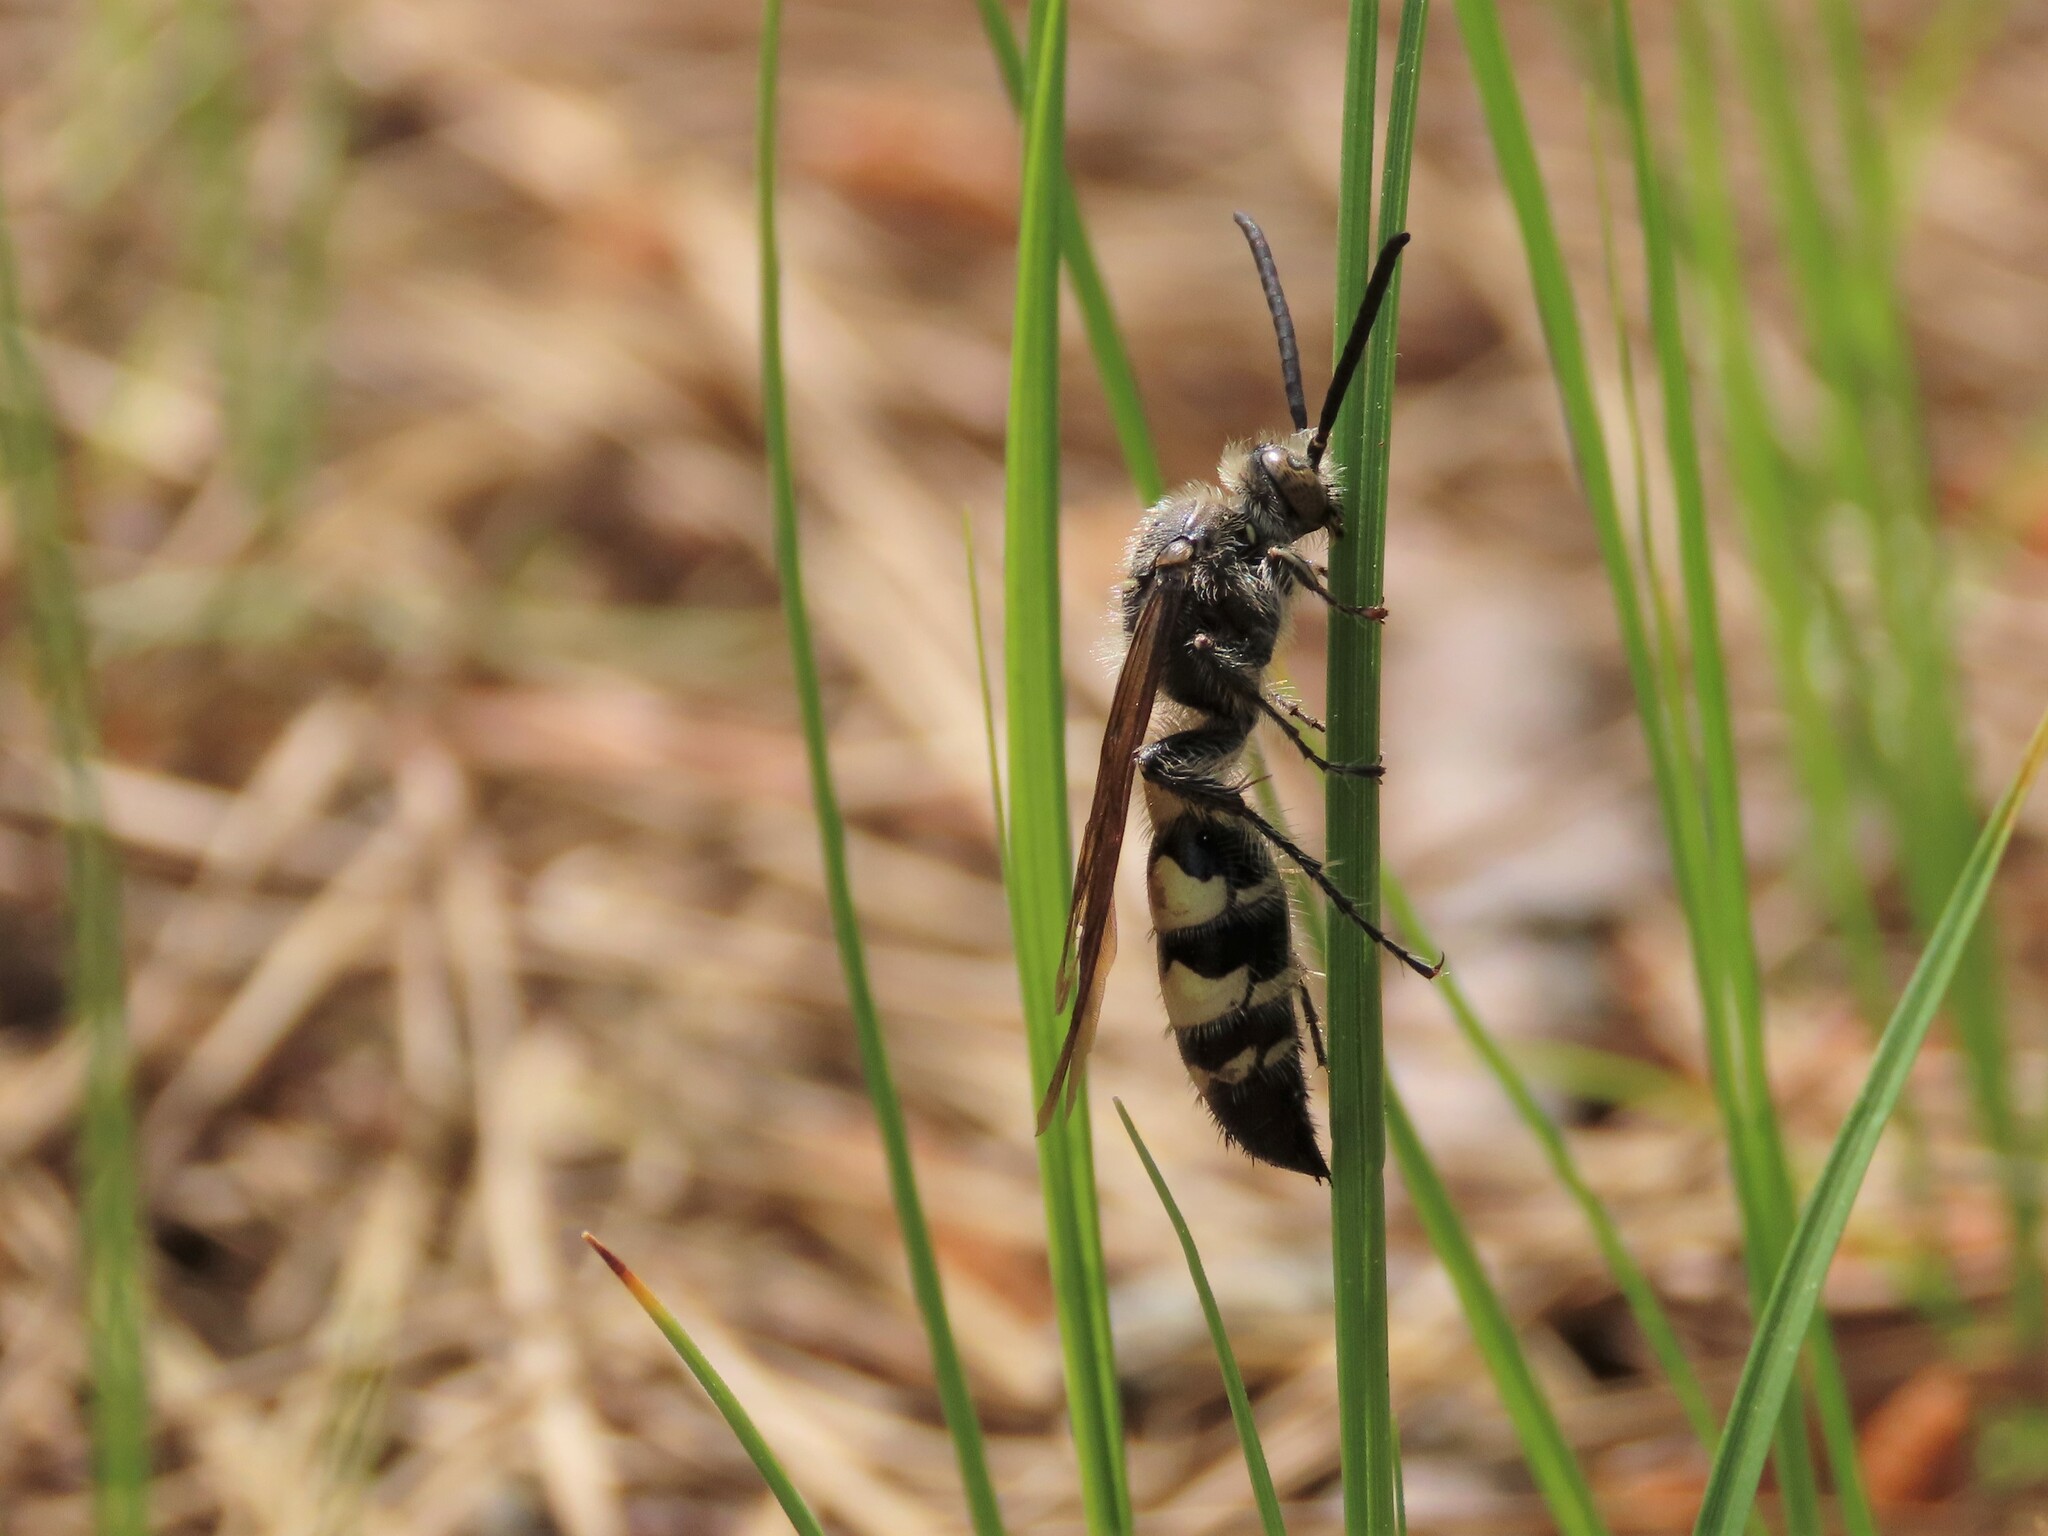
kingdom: Animalia
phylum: Arthropoda
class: Insecta
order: Hymenoptera
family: Scoliidae
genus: Dielis
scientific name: Dielis
